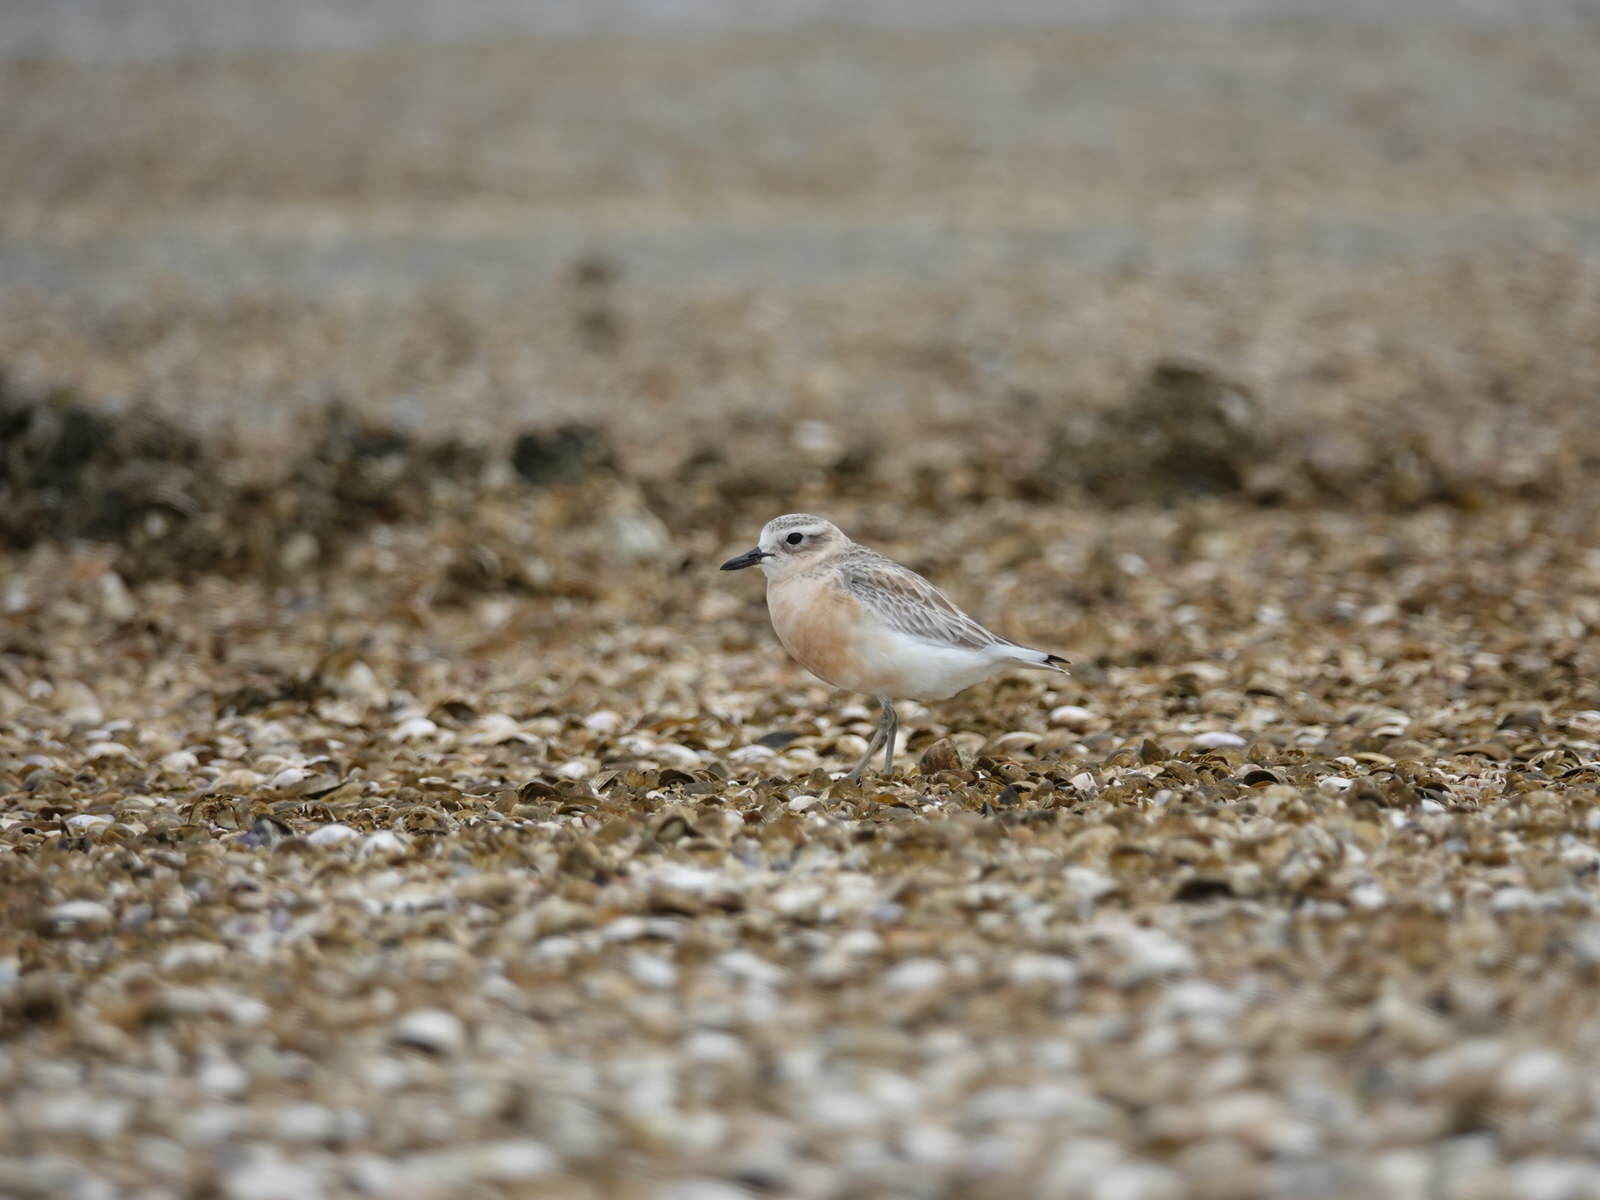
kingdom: Animalia
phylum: Chordata
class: Aves
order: Charadriiformes
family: Charadriidae
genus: Anarhynchus
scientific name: Anarhynchus
